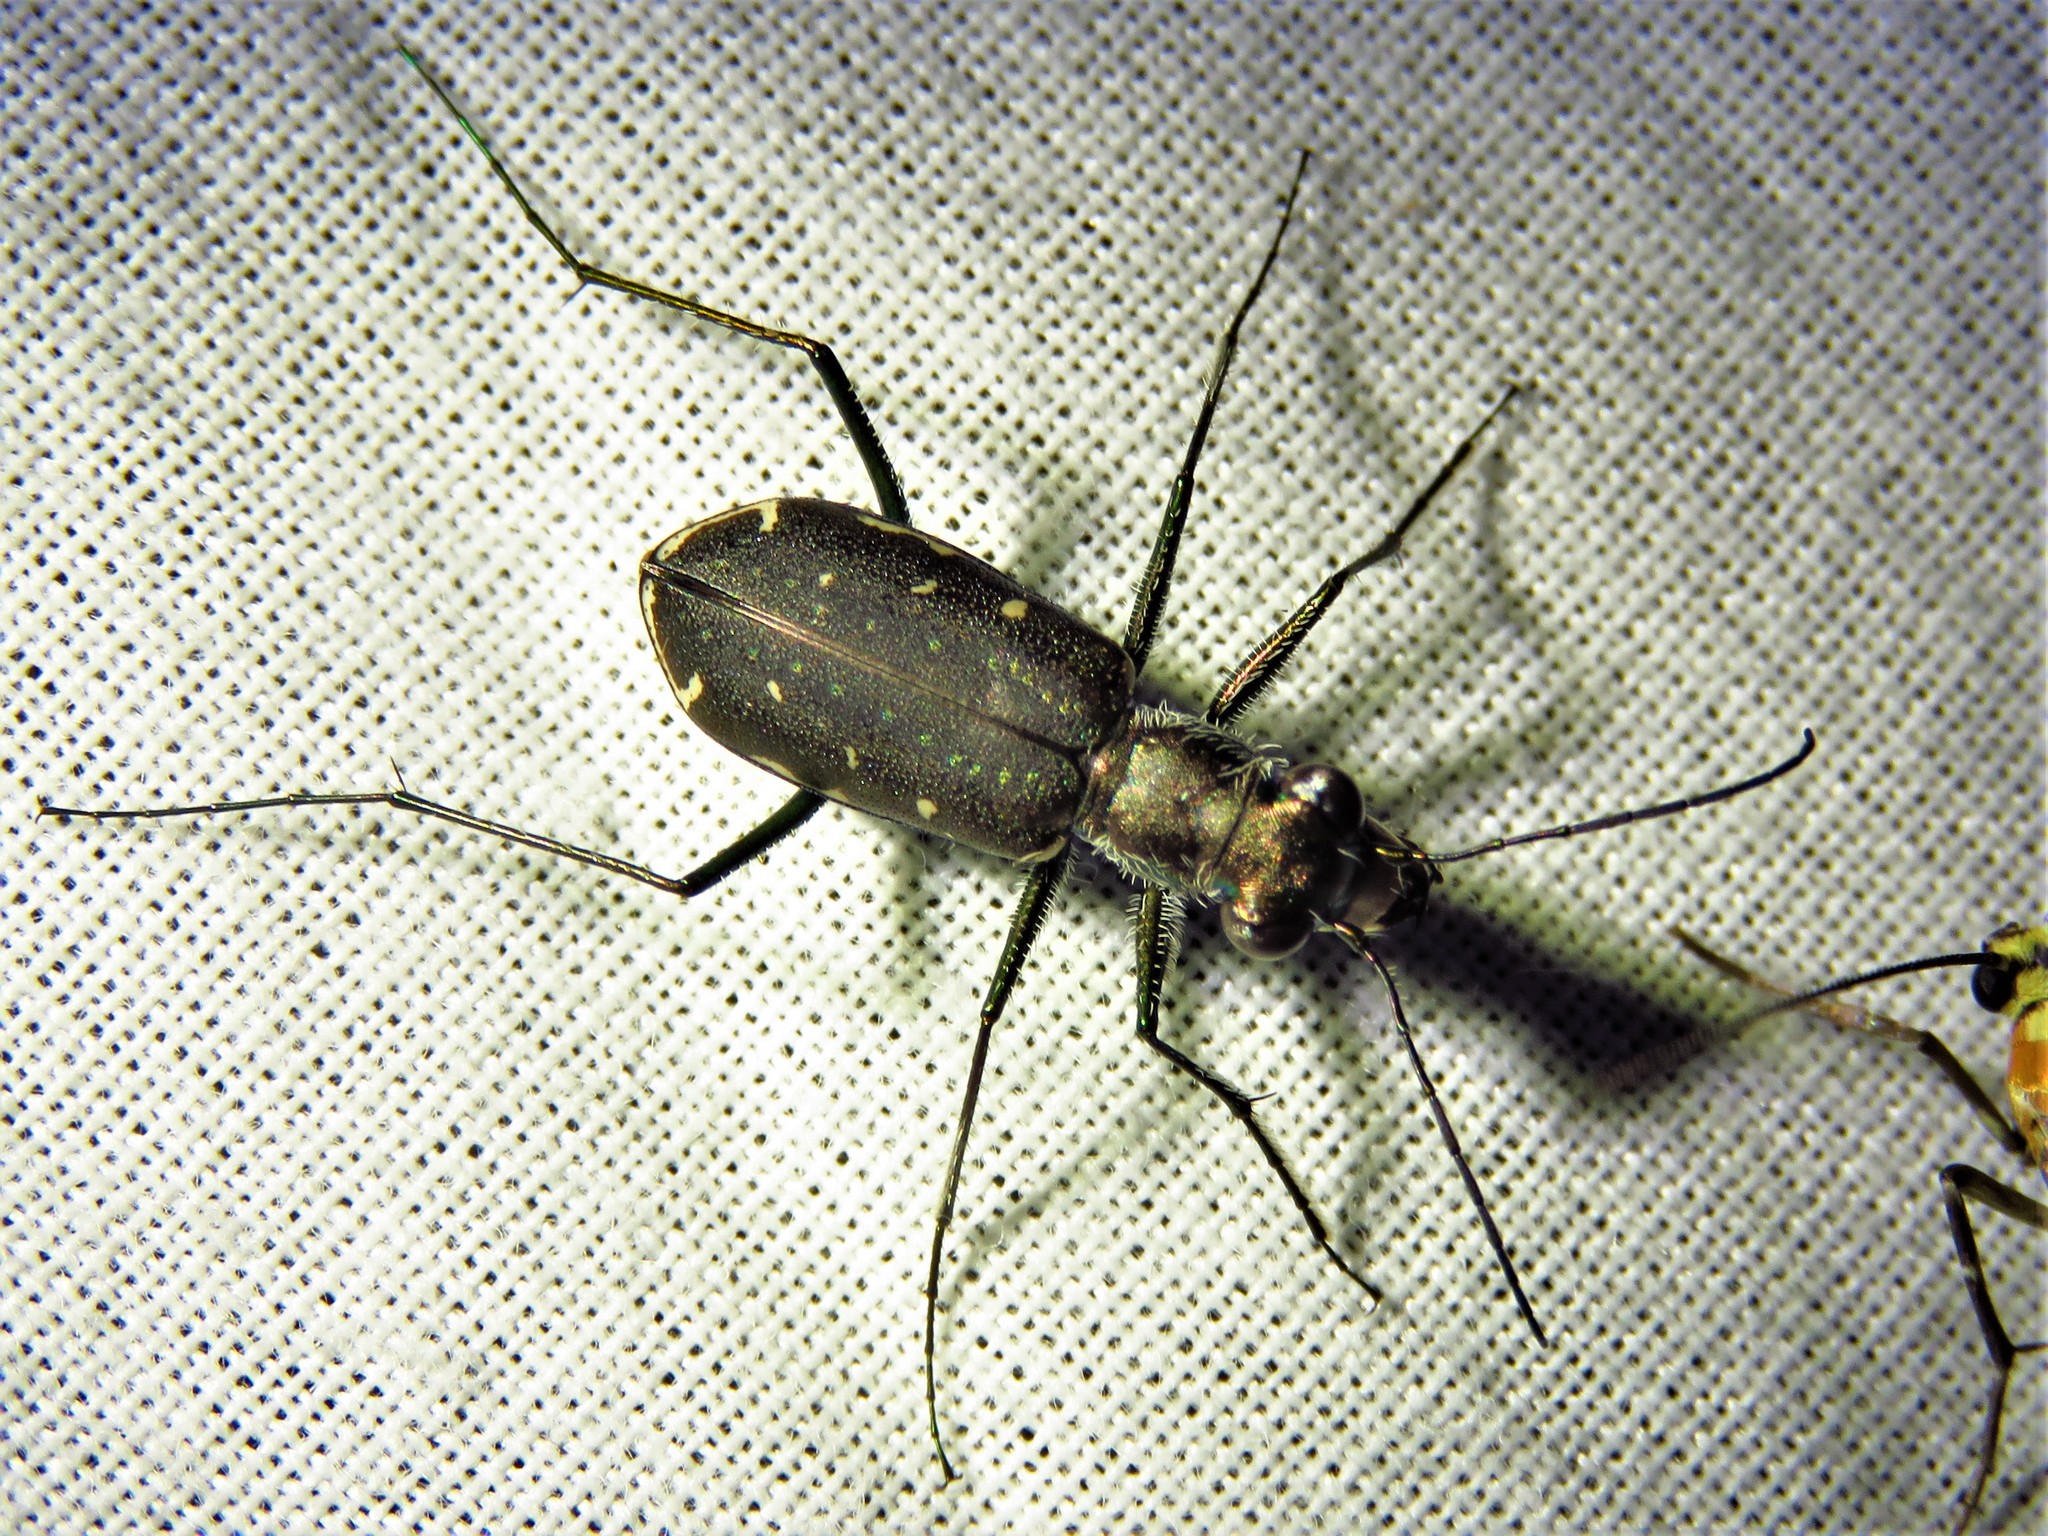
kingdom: Animalia
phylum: Arthropoda
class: Insecta
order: Coleoptera
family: Carabidae
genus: Cicindela
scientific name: Cicindela punctulata
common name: Punctured tiger beetle
